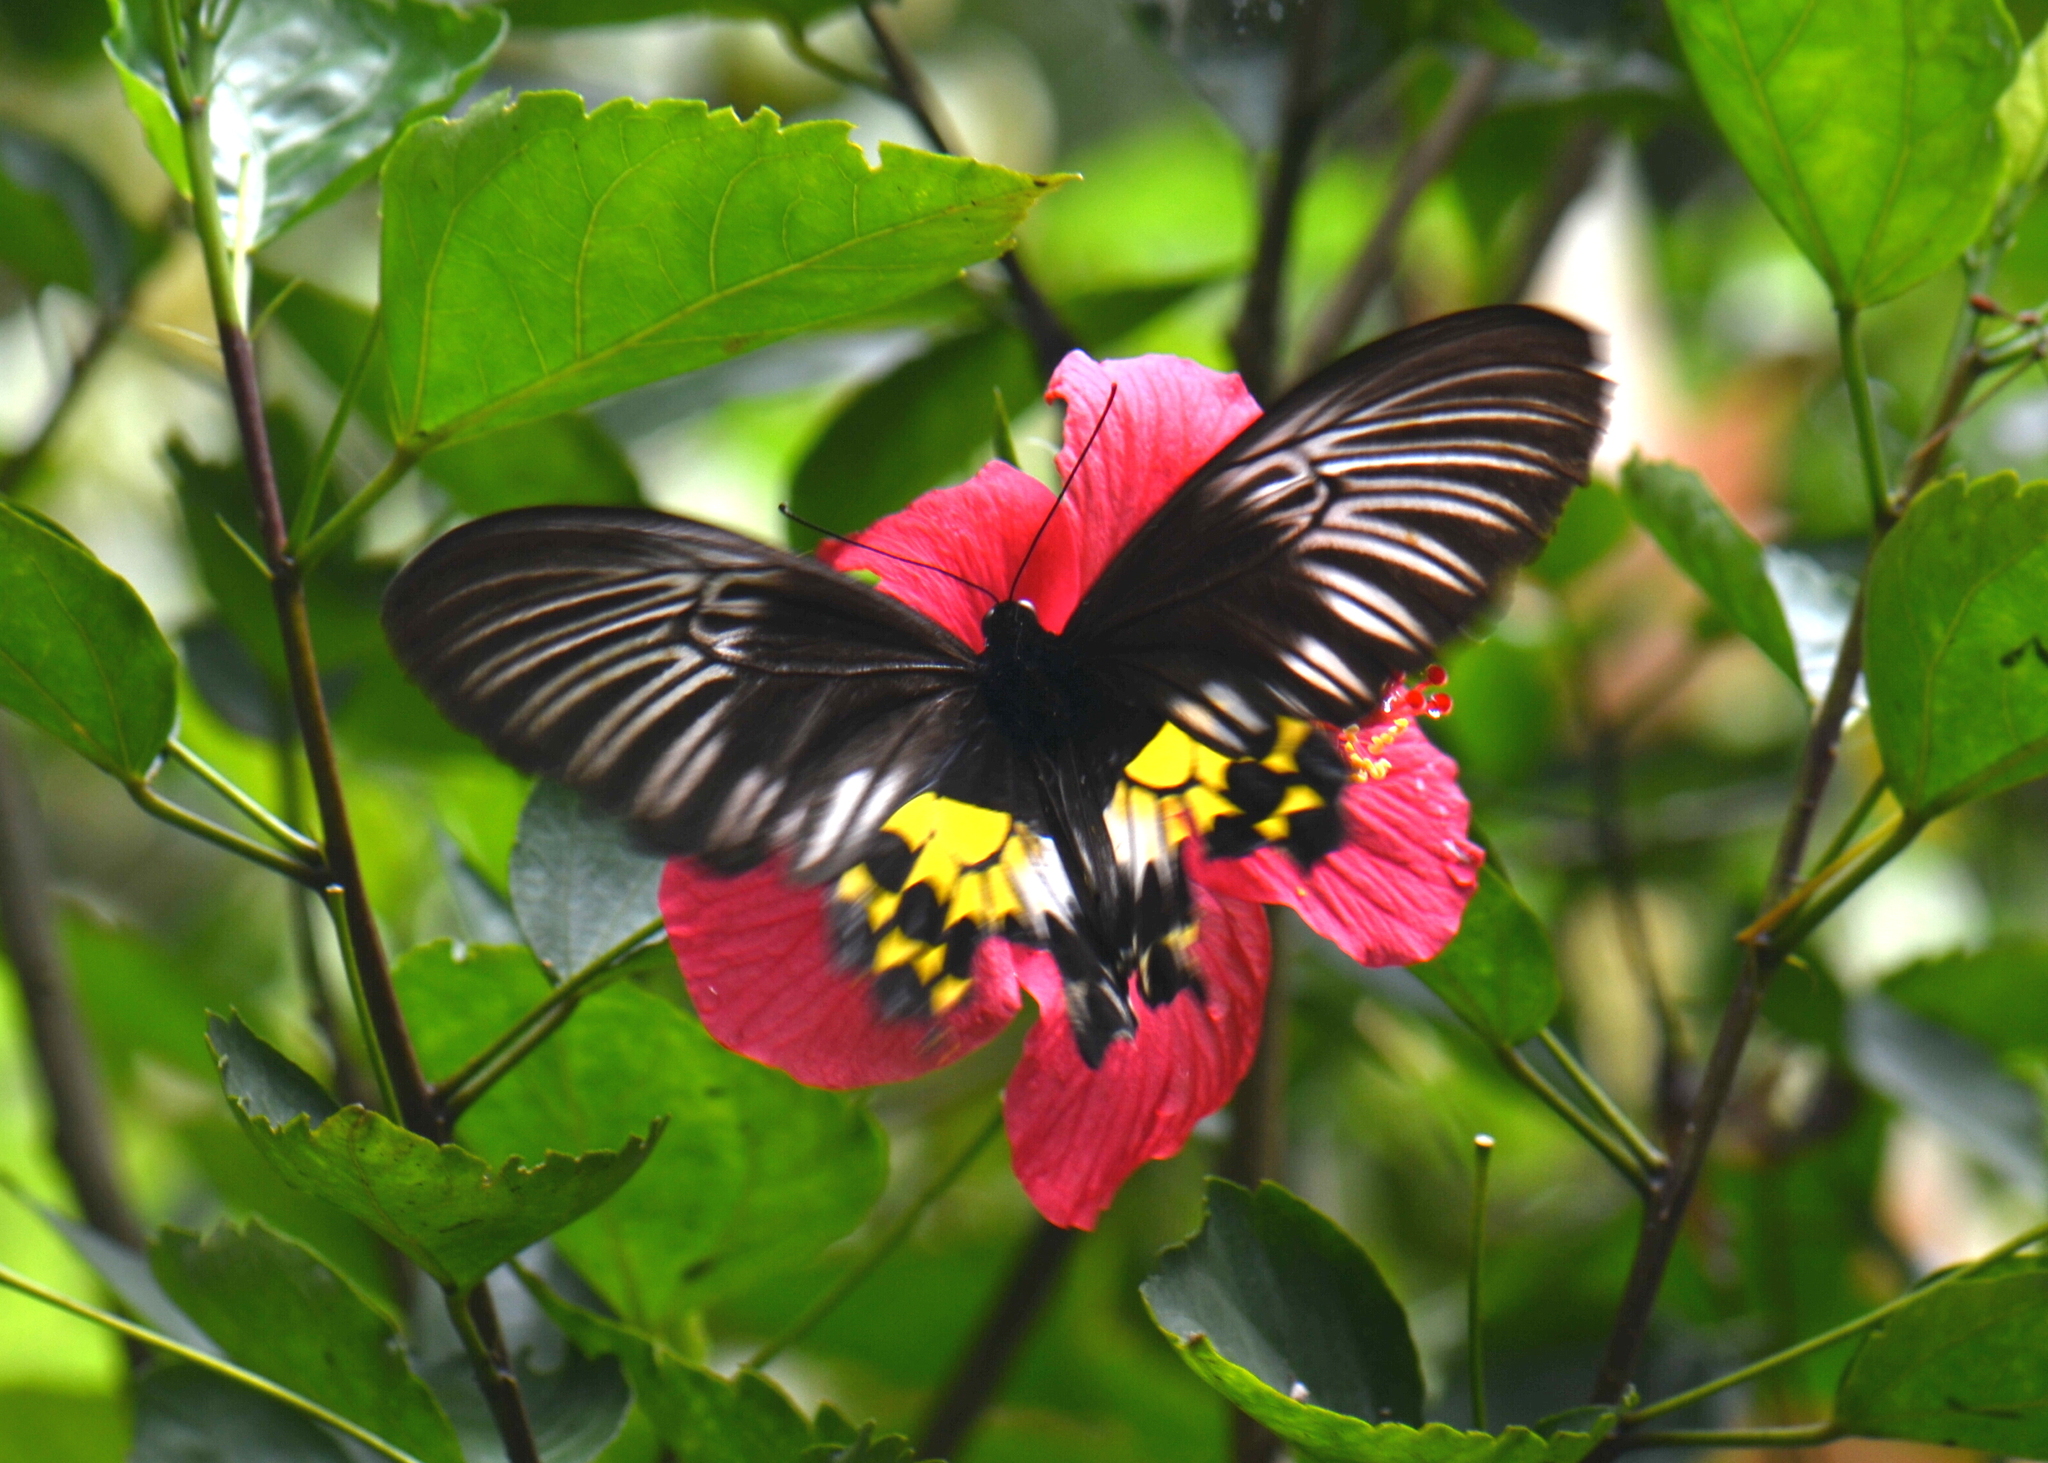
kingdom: Animalia
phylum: Arthropoda
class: Insecta
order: Lepidoptera
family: Papilionidae
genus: Troides
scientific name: Troides vandepolli
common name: Van de poll’s birdwing
